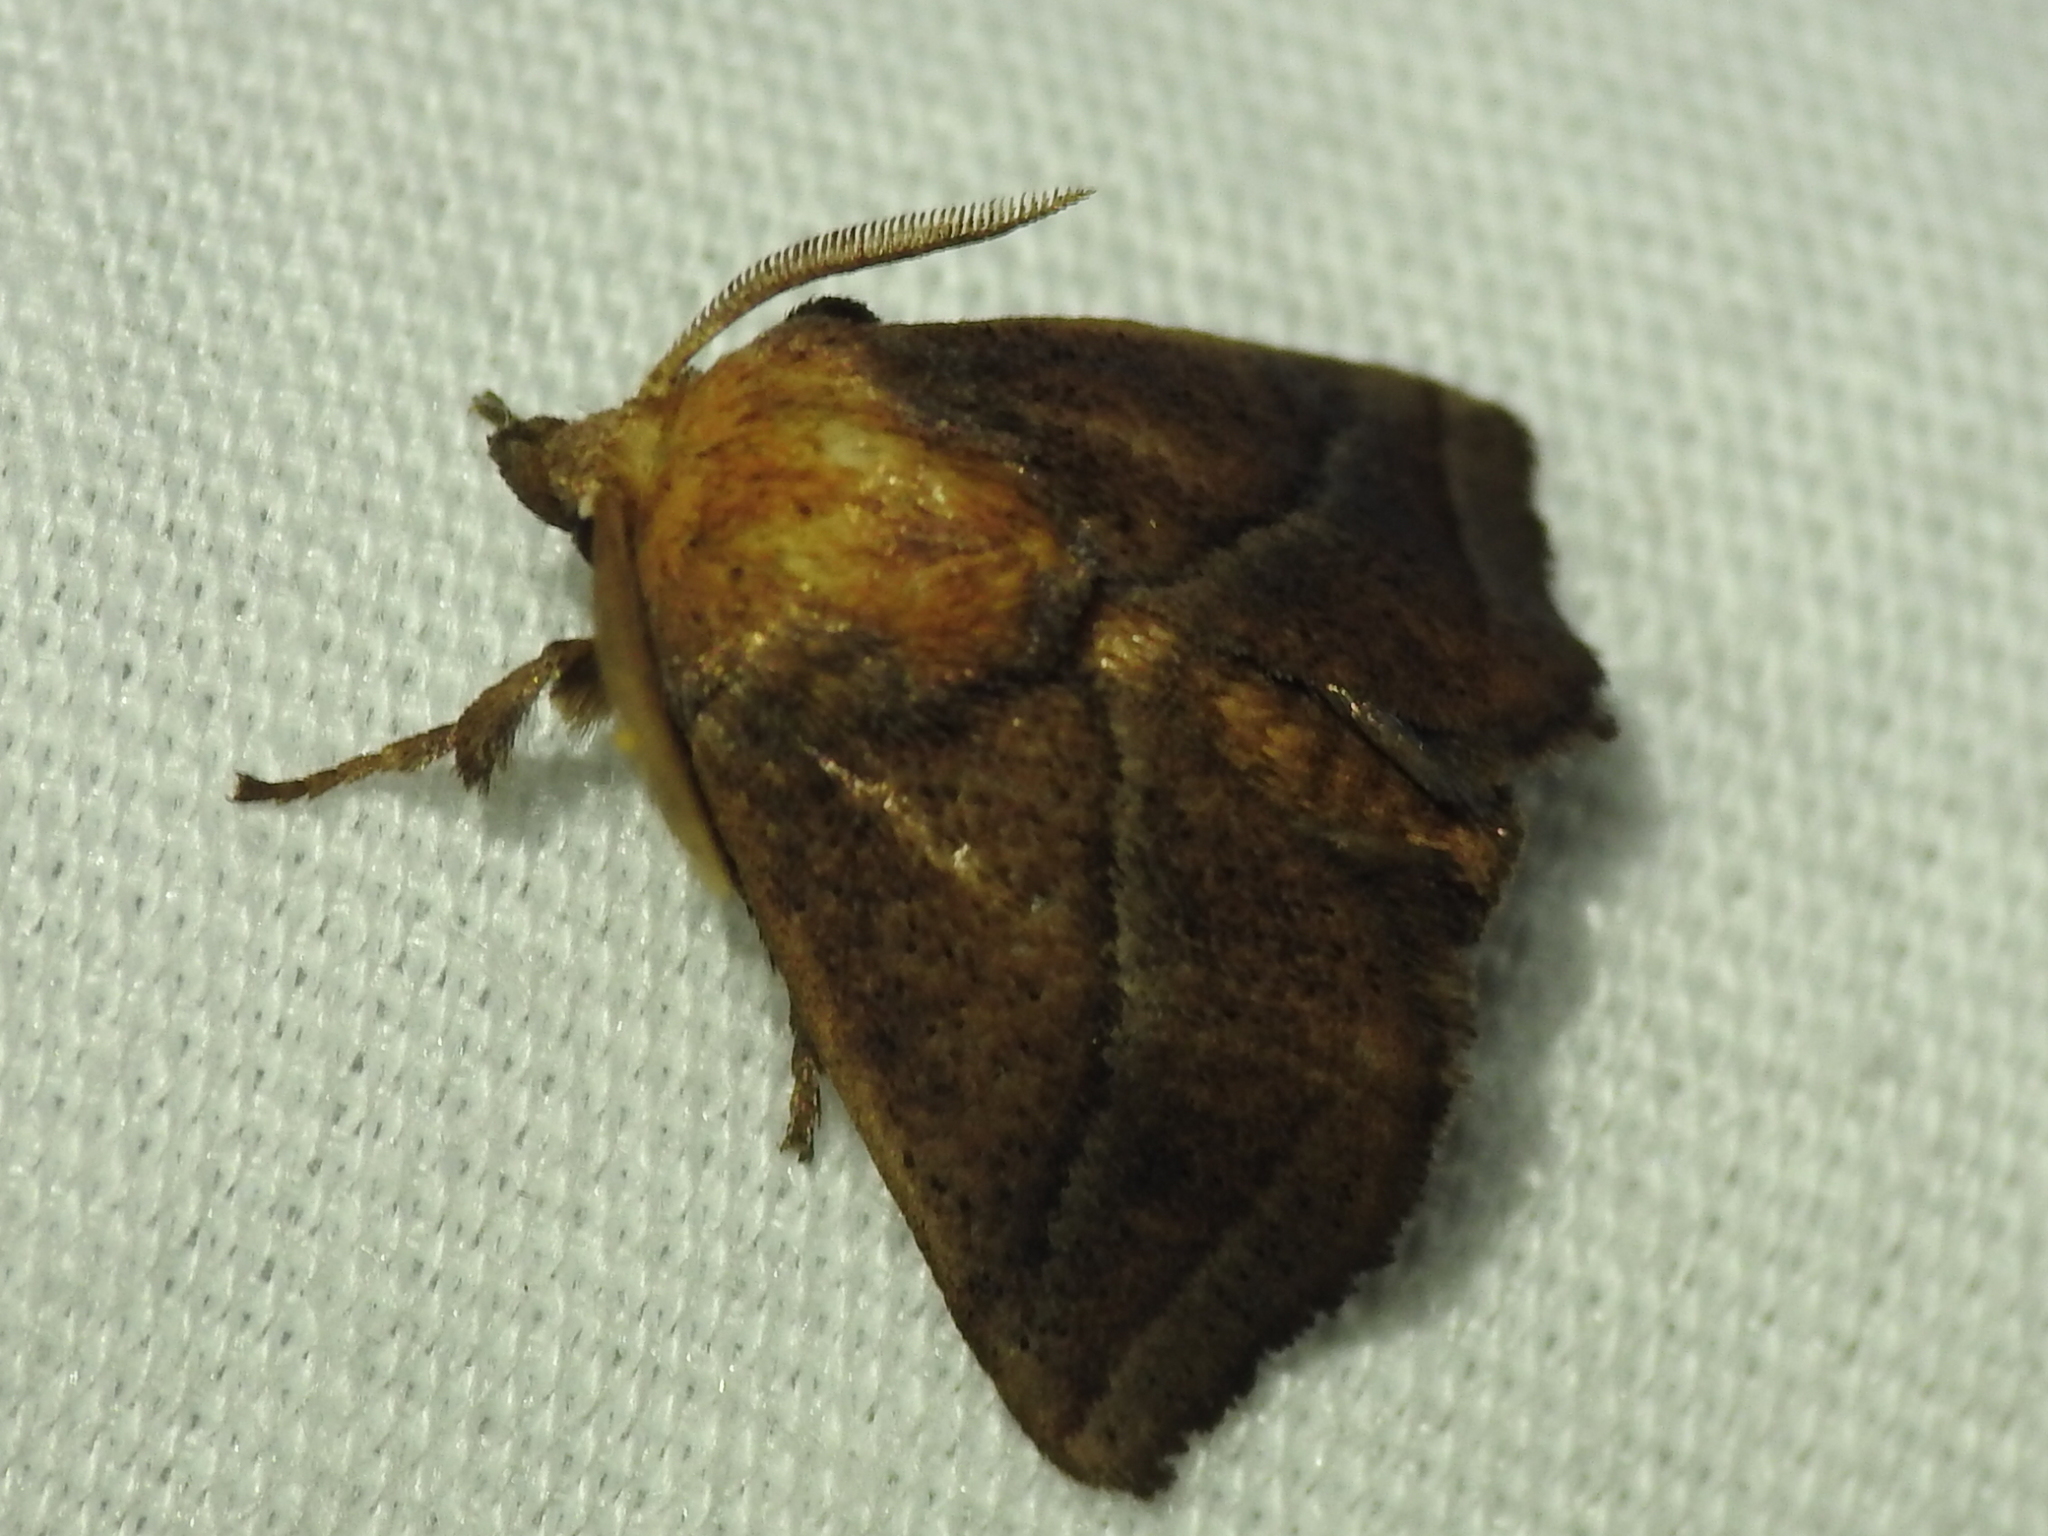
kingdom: Animalia
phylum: Arthropoda
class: Insecta
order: Lepidoptera
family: Limacodidae
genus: Natada
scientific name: Natada nasoni
